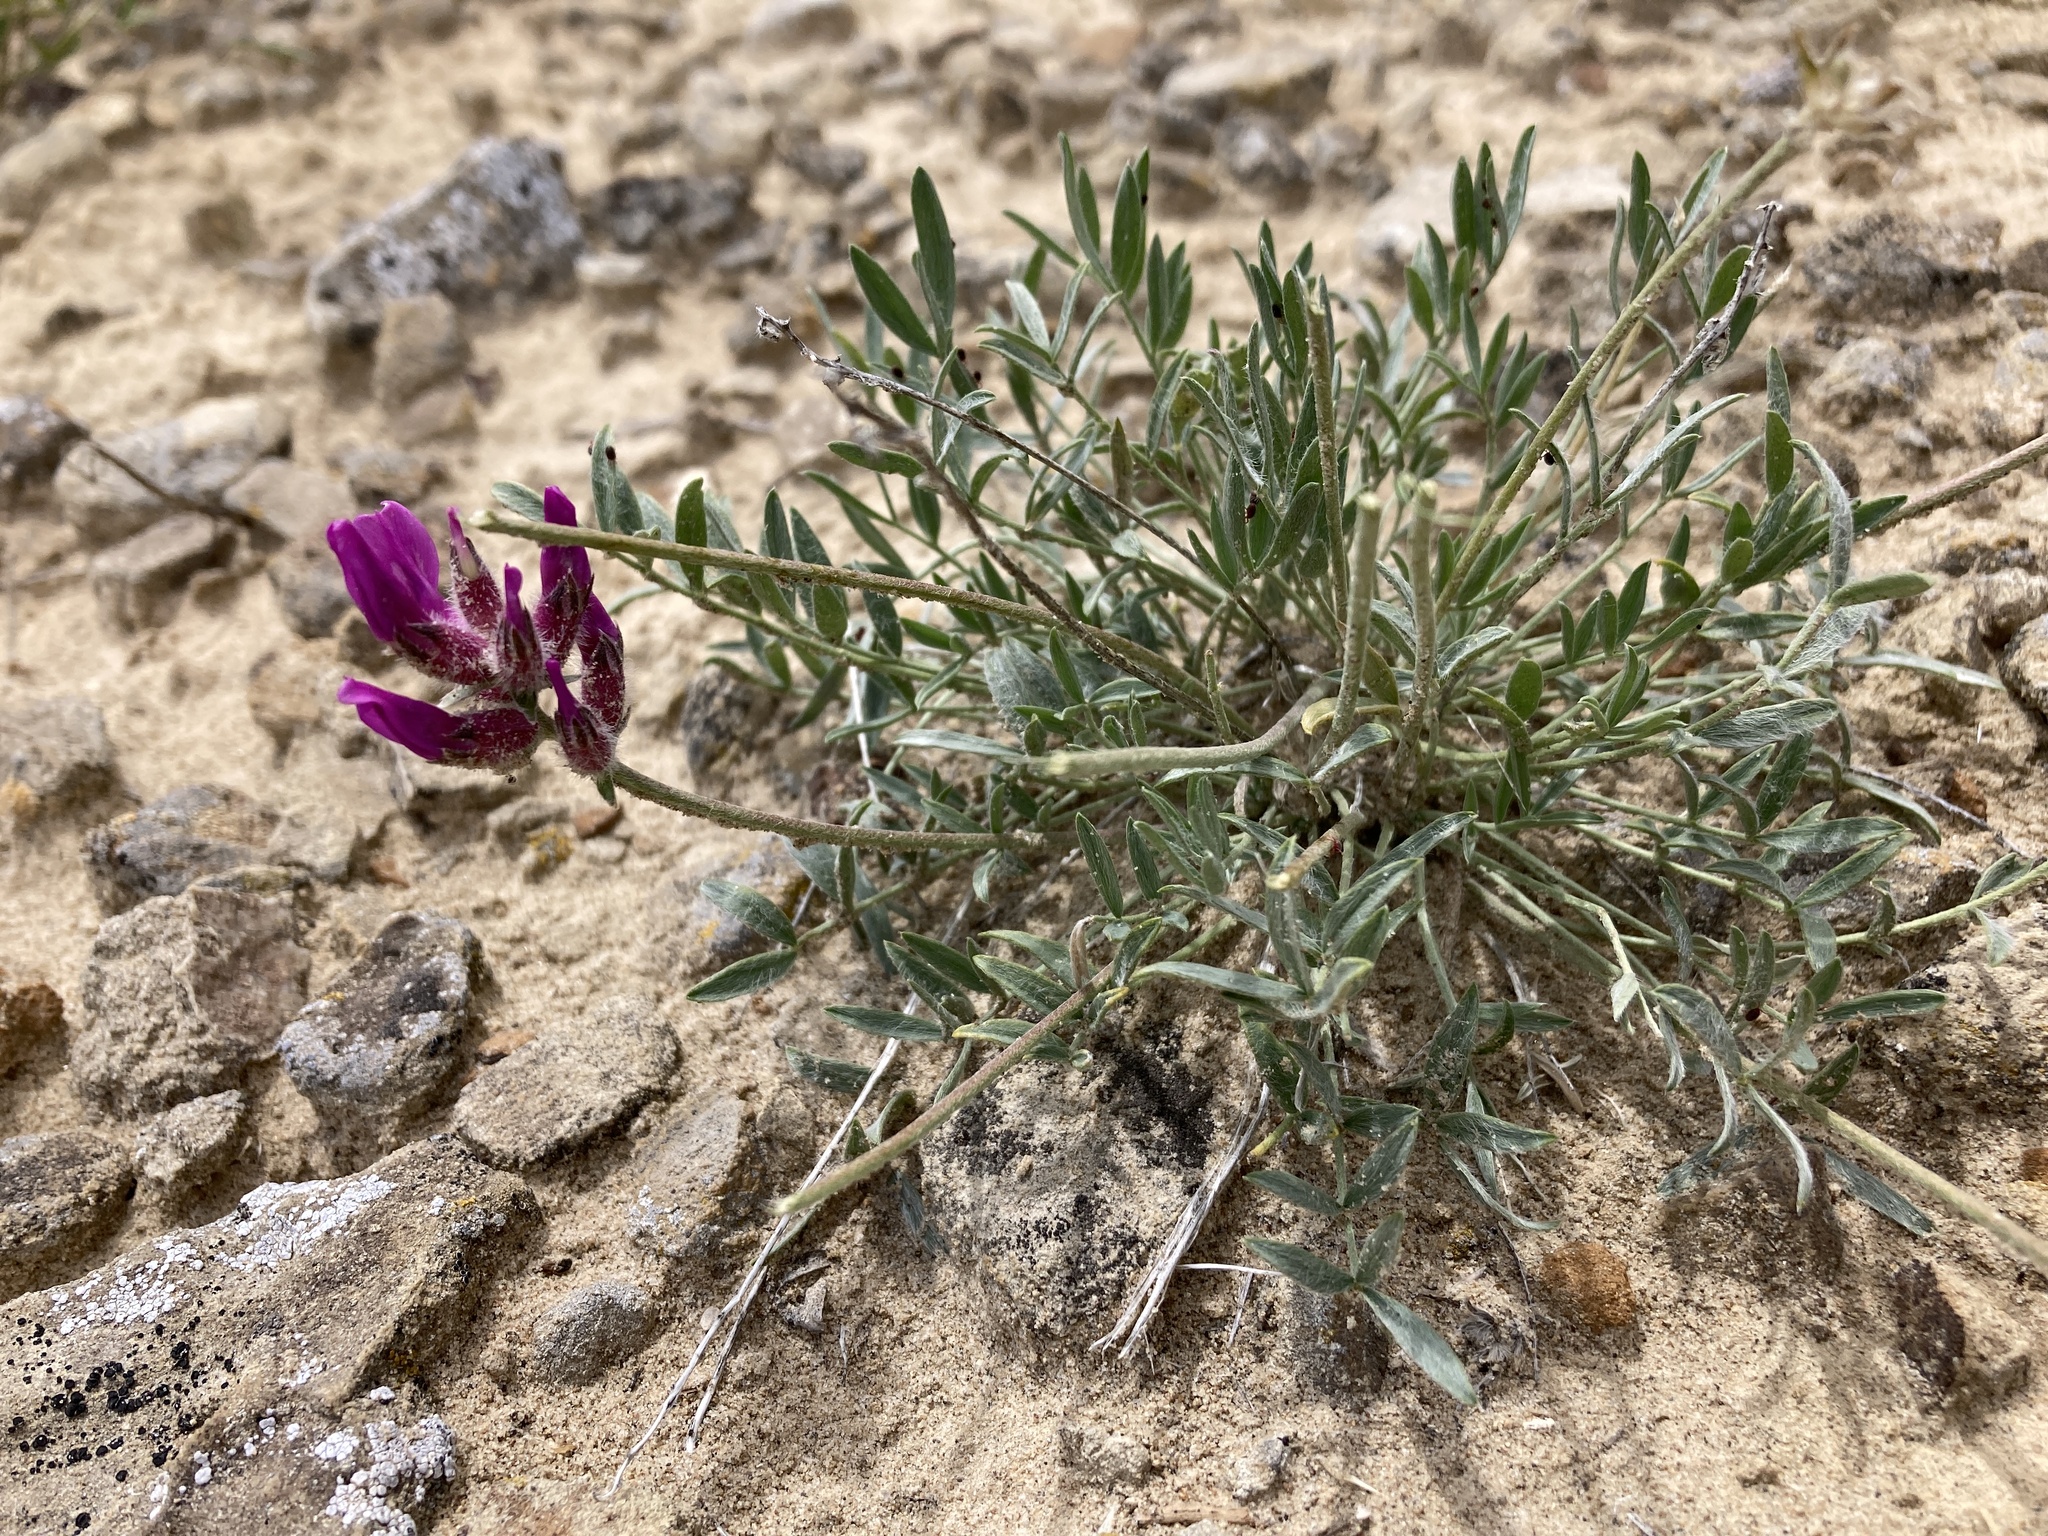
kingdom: Plantae
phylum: Tracheophyta
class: Magnoliopsida
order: Fabales
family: Fabaceae
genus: Oxytropis
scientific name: Oxytropis besseyi
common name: Bessey's locoweed
